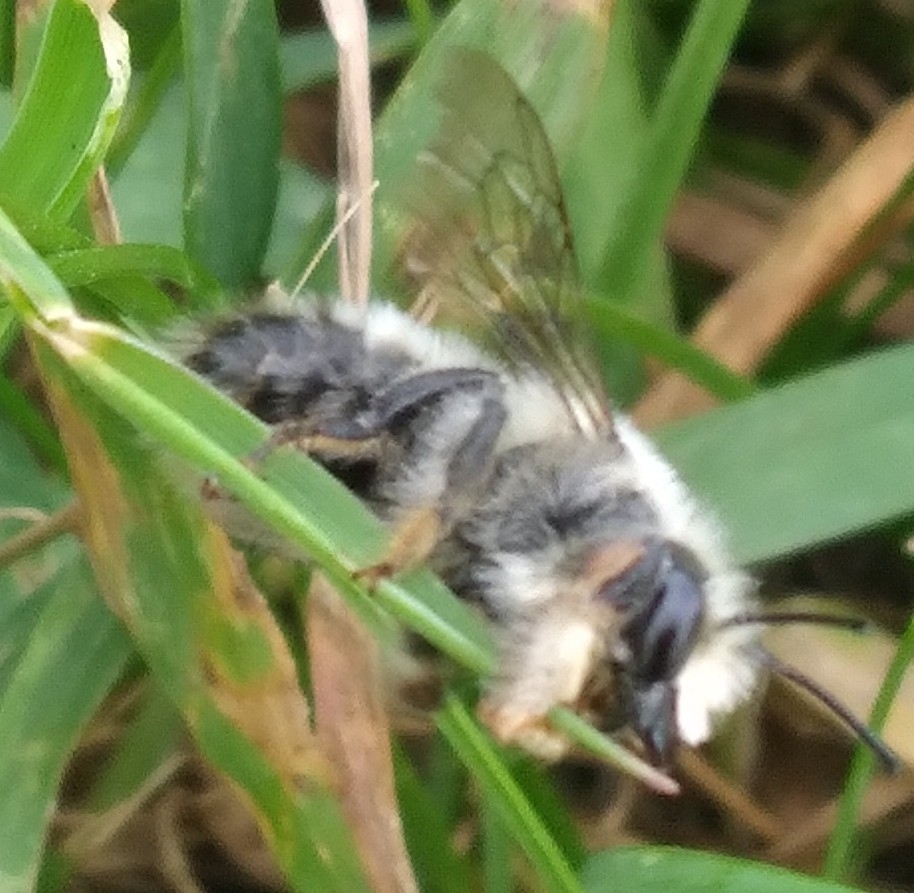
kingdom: Animalia
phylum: Arthropoda
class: Insecta
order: Hymenoptera
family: Megachilidae
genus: Megachile
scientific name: Megachile melanophaea
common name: Black-and-gray leafcutter bee
